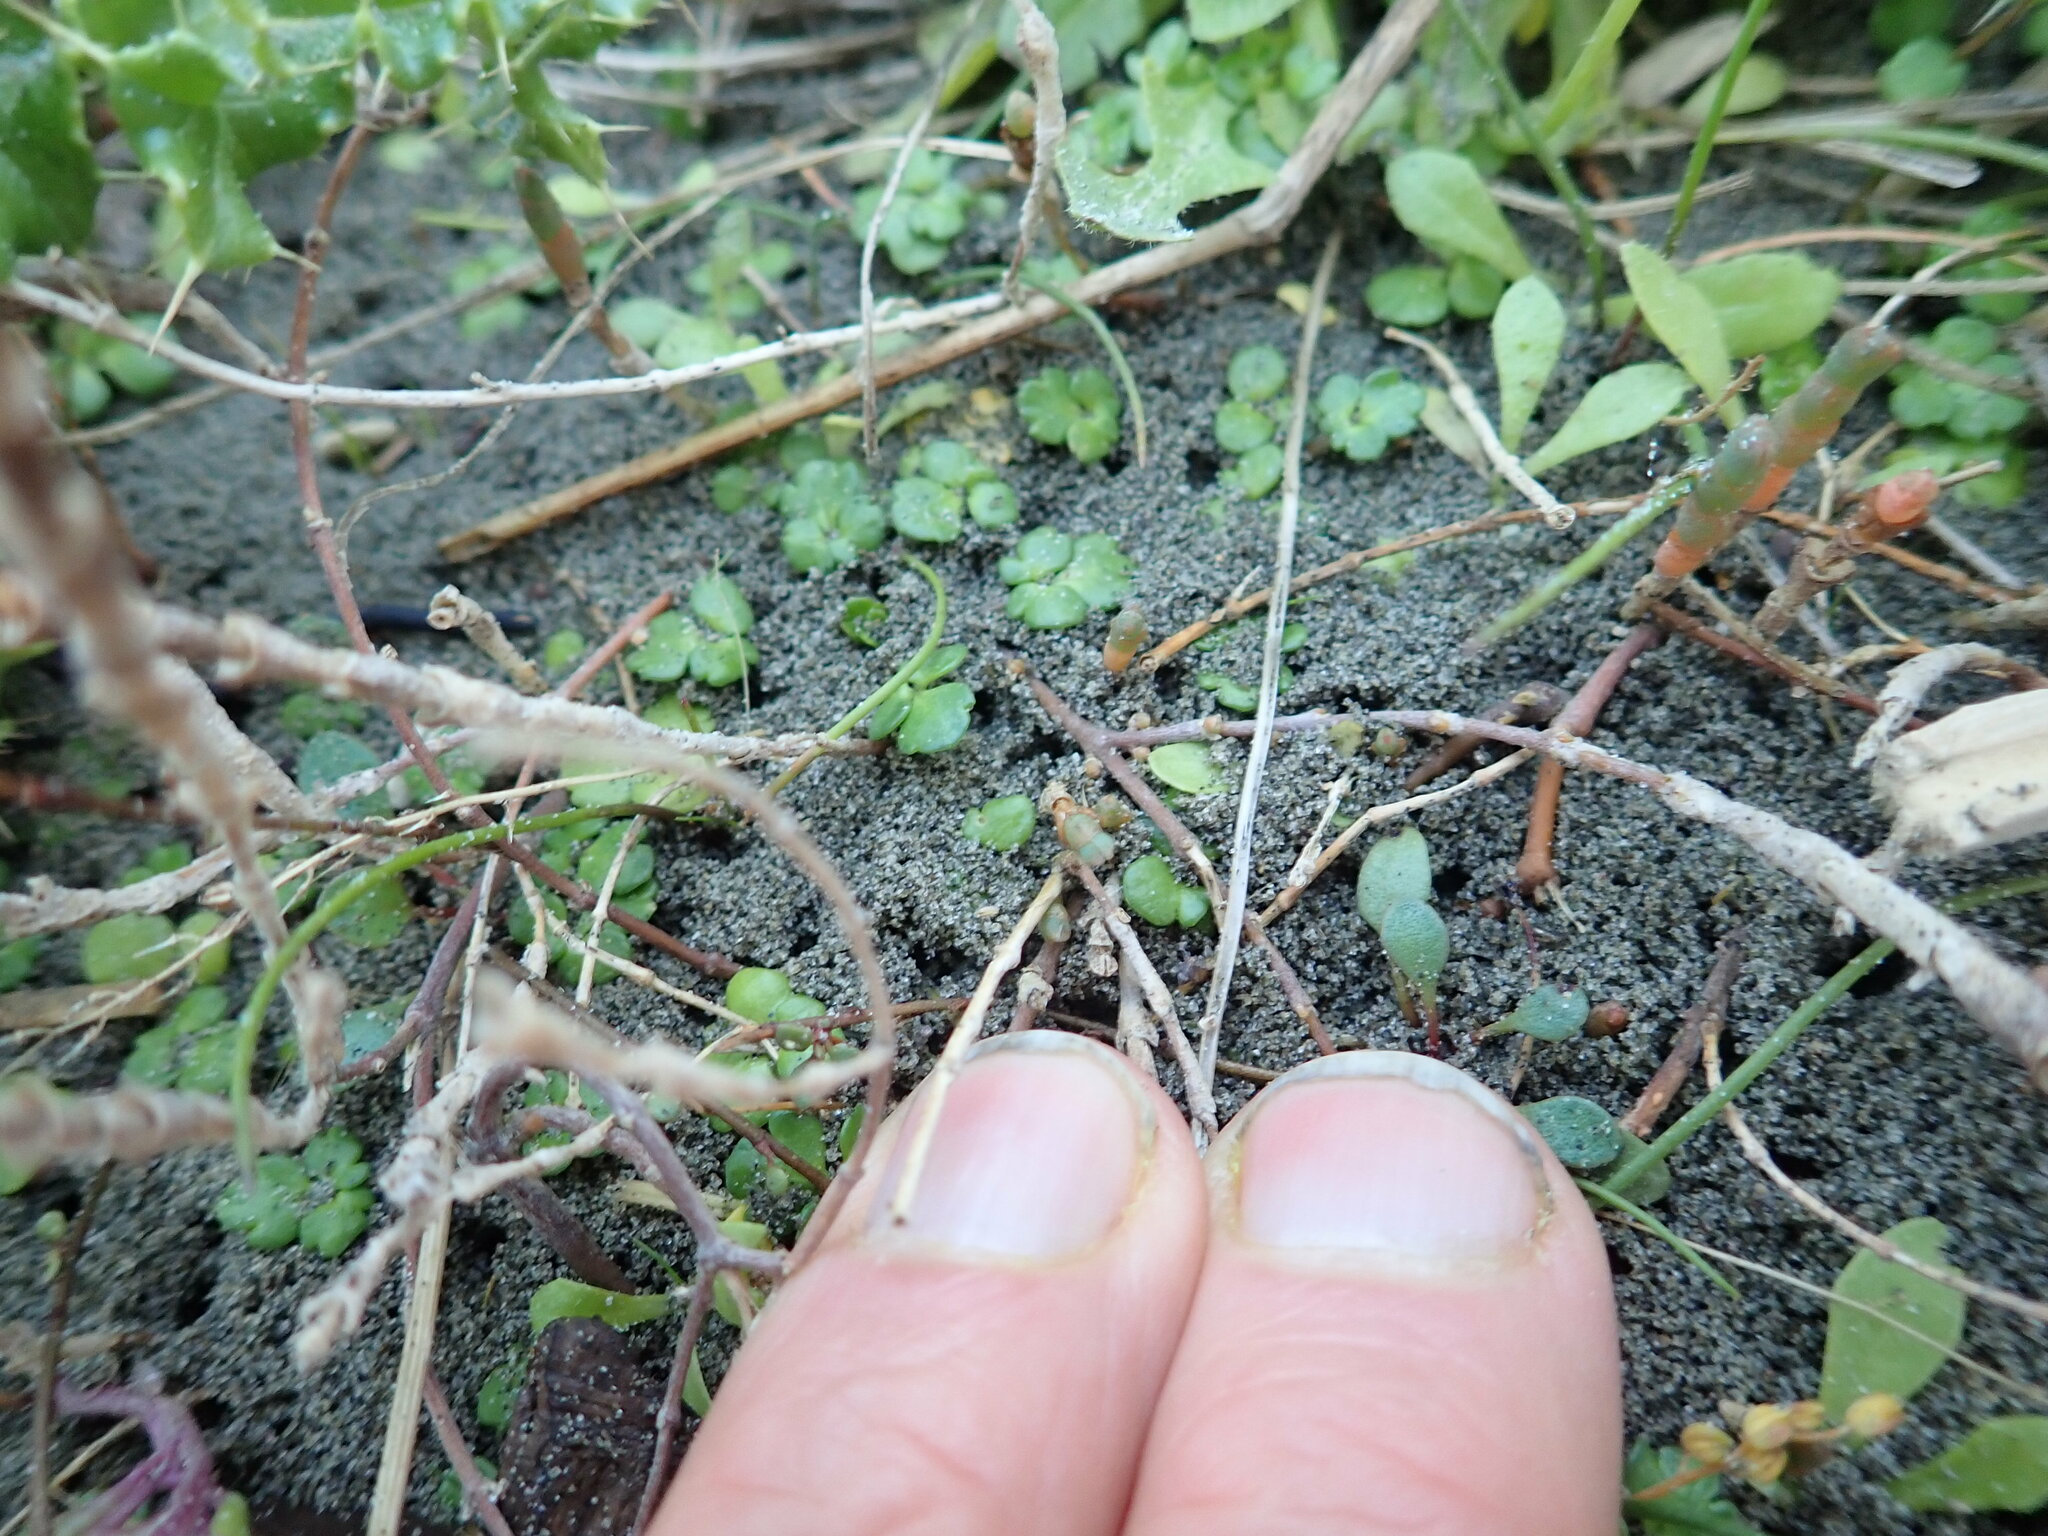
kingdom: Plantae
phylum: Tracheophyta
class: Magnoliopsida
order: Ranunculales
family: Ranunculaceae
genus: Ranunculus
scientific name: Ranunculus acaulis
